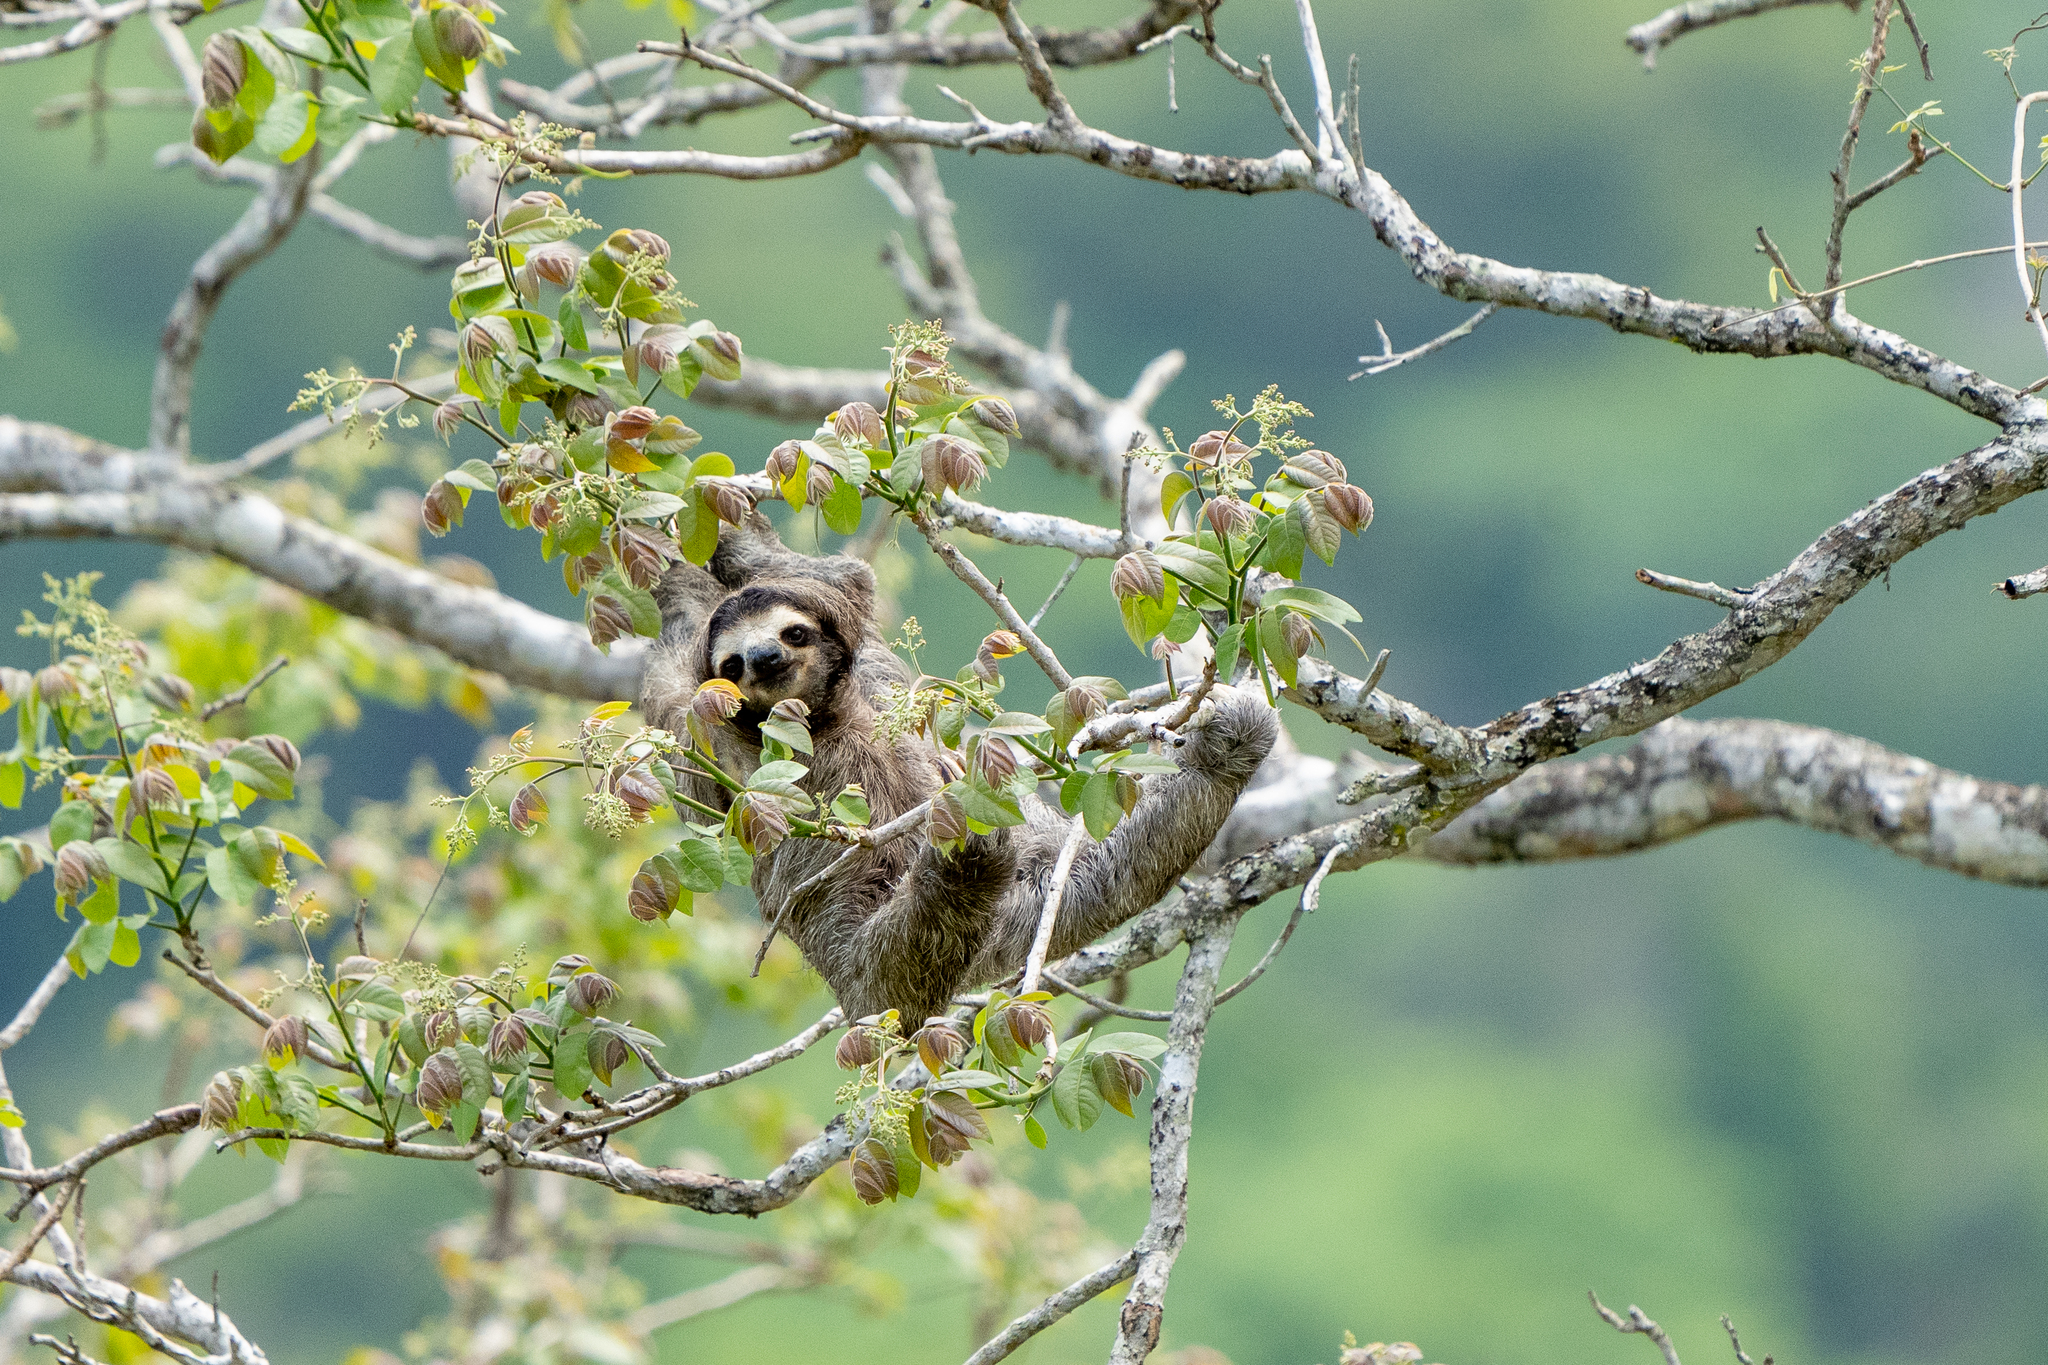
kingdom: Animalia
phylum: Chordata
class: Mammalia
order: Pilosa
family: Bradypodidae
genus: Bradypus
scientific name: Bradypus variegatus
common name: Brown-throated three-toed sloth
